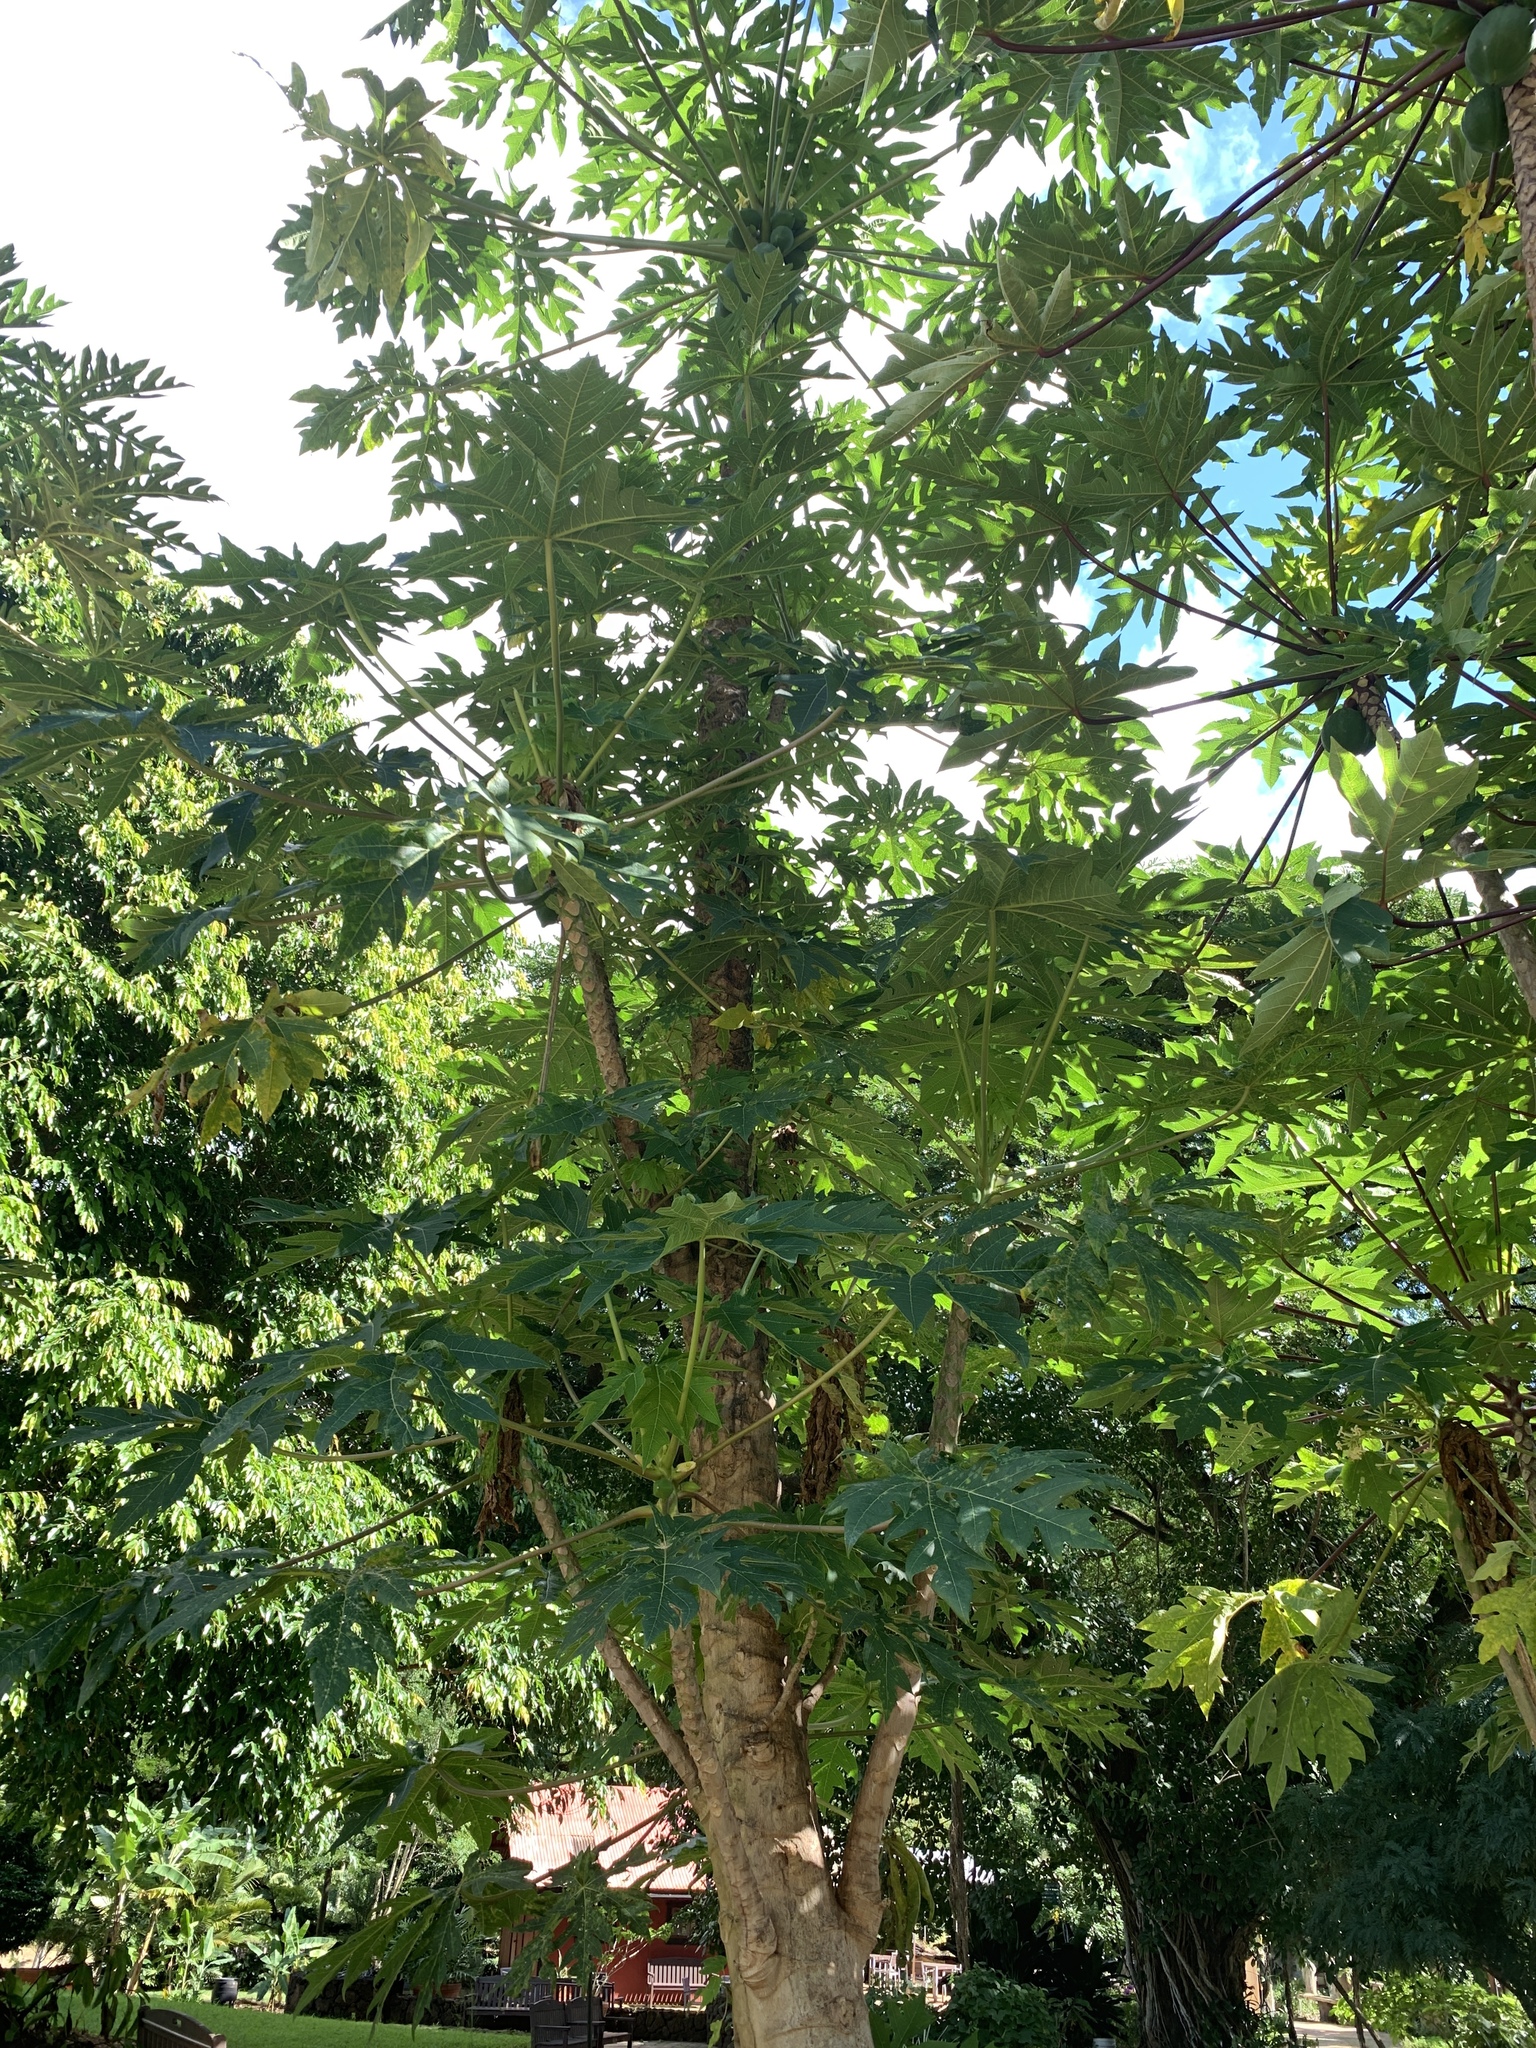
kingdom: Plantae
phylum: Tracheophyta
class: Magnoliopsida
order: Brassicales
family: Caricaceae
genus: Carica
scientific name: Carica papaya
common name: Papaya
